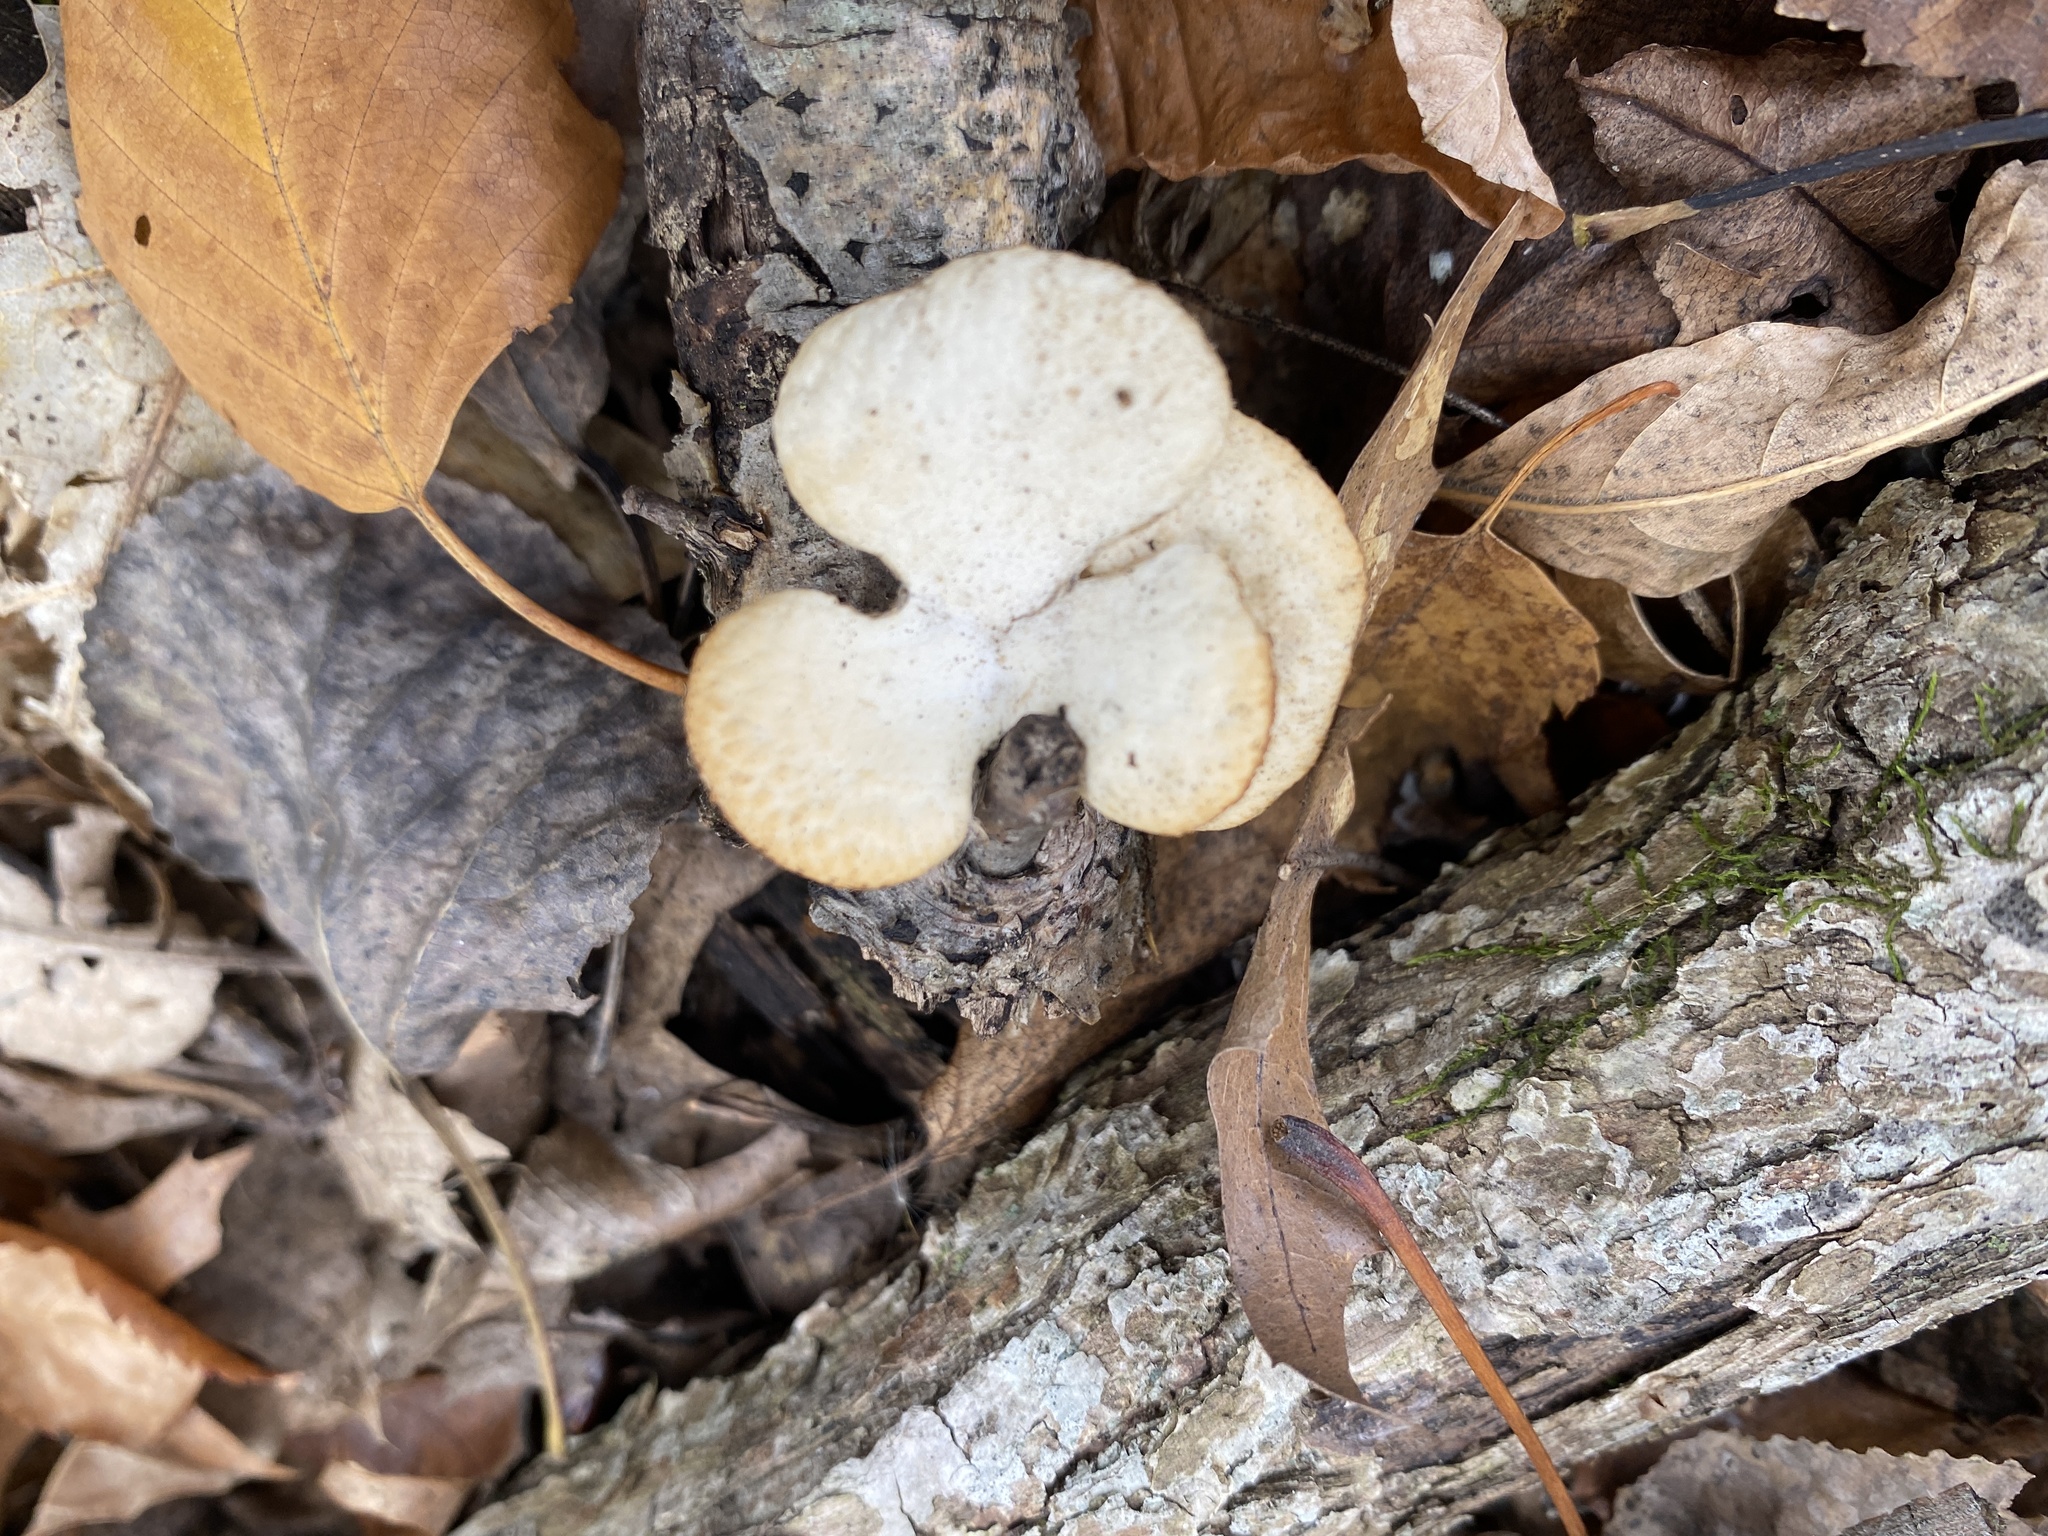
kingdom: Fungi
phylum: Basidiomycota
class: Agaricomycetes
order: Agaricales
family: Phyllotopsidaceae
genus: Phyllotopsis
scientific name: Phyllotopsis nidulans
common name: Orange mock oyster
